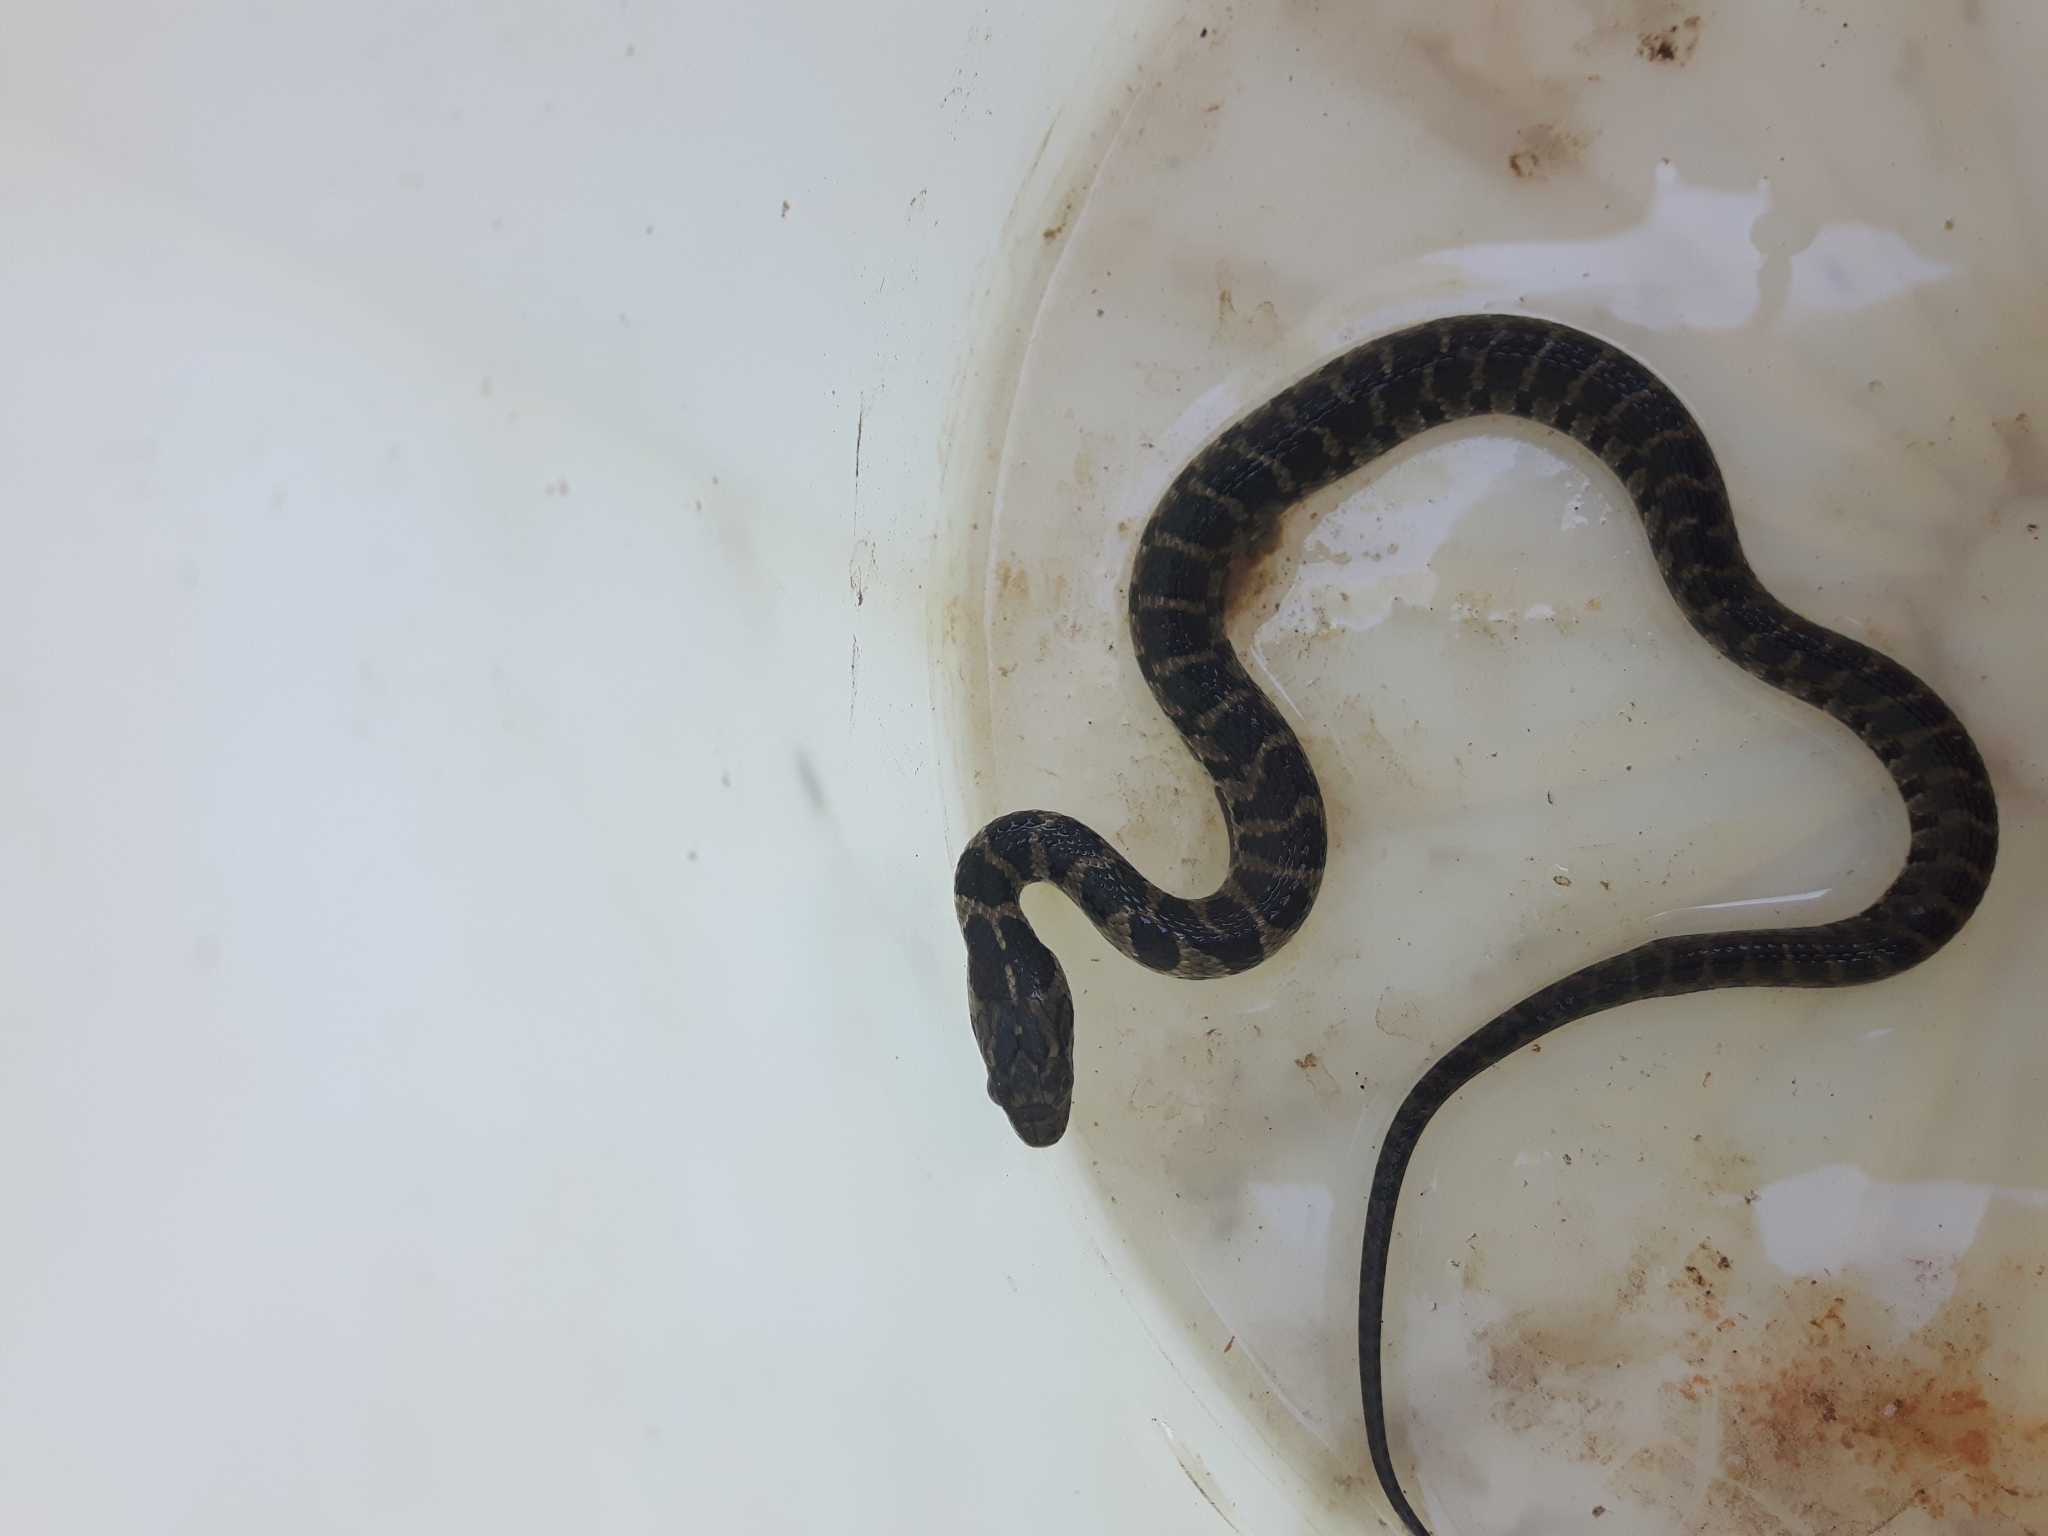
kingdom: Animalia
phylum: Chordata
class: Squamata
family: Colubridae
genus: Nerodia
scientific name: Nerodia sipedon
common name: Northern water snake
